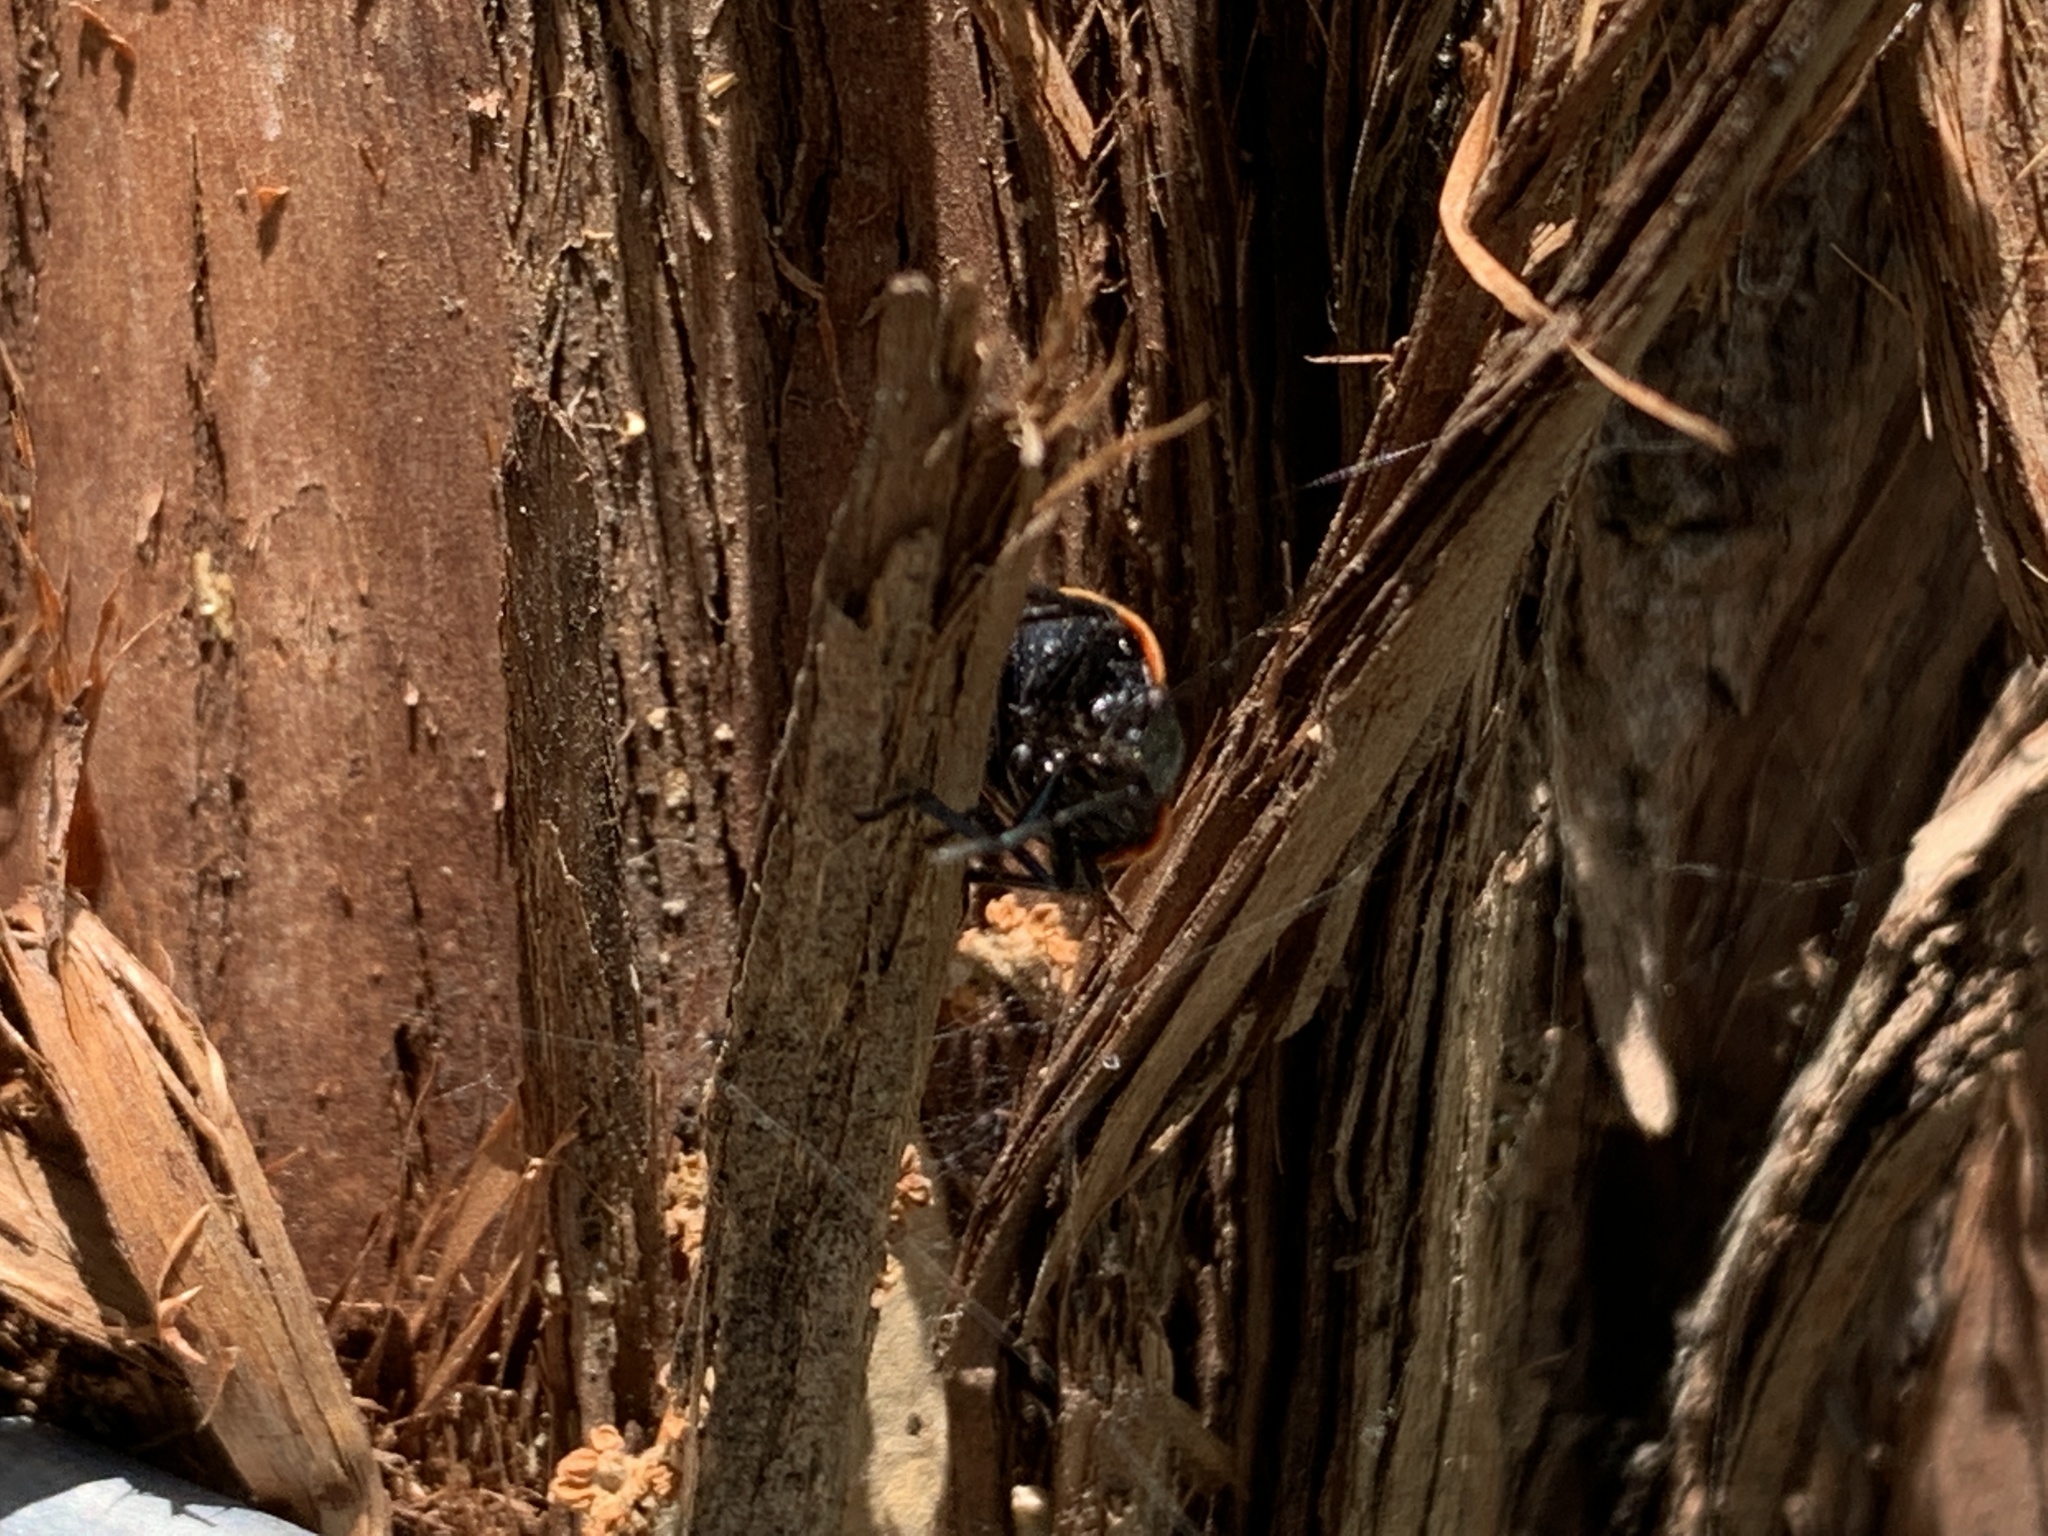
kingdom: Animalia
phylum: Arthropoda
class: Insecta
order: Hemiptera
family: Pentatomidae
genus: Chlorochroa
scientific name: Chlorochroa ligata
